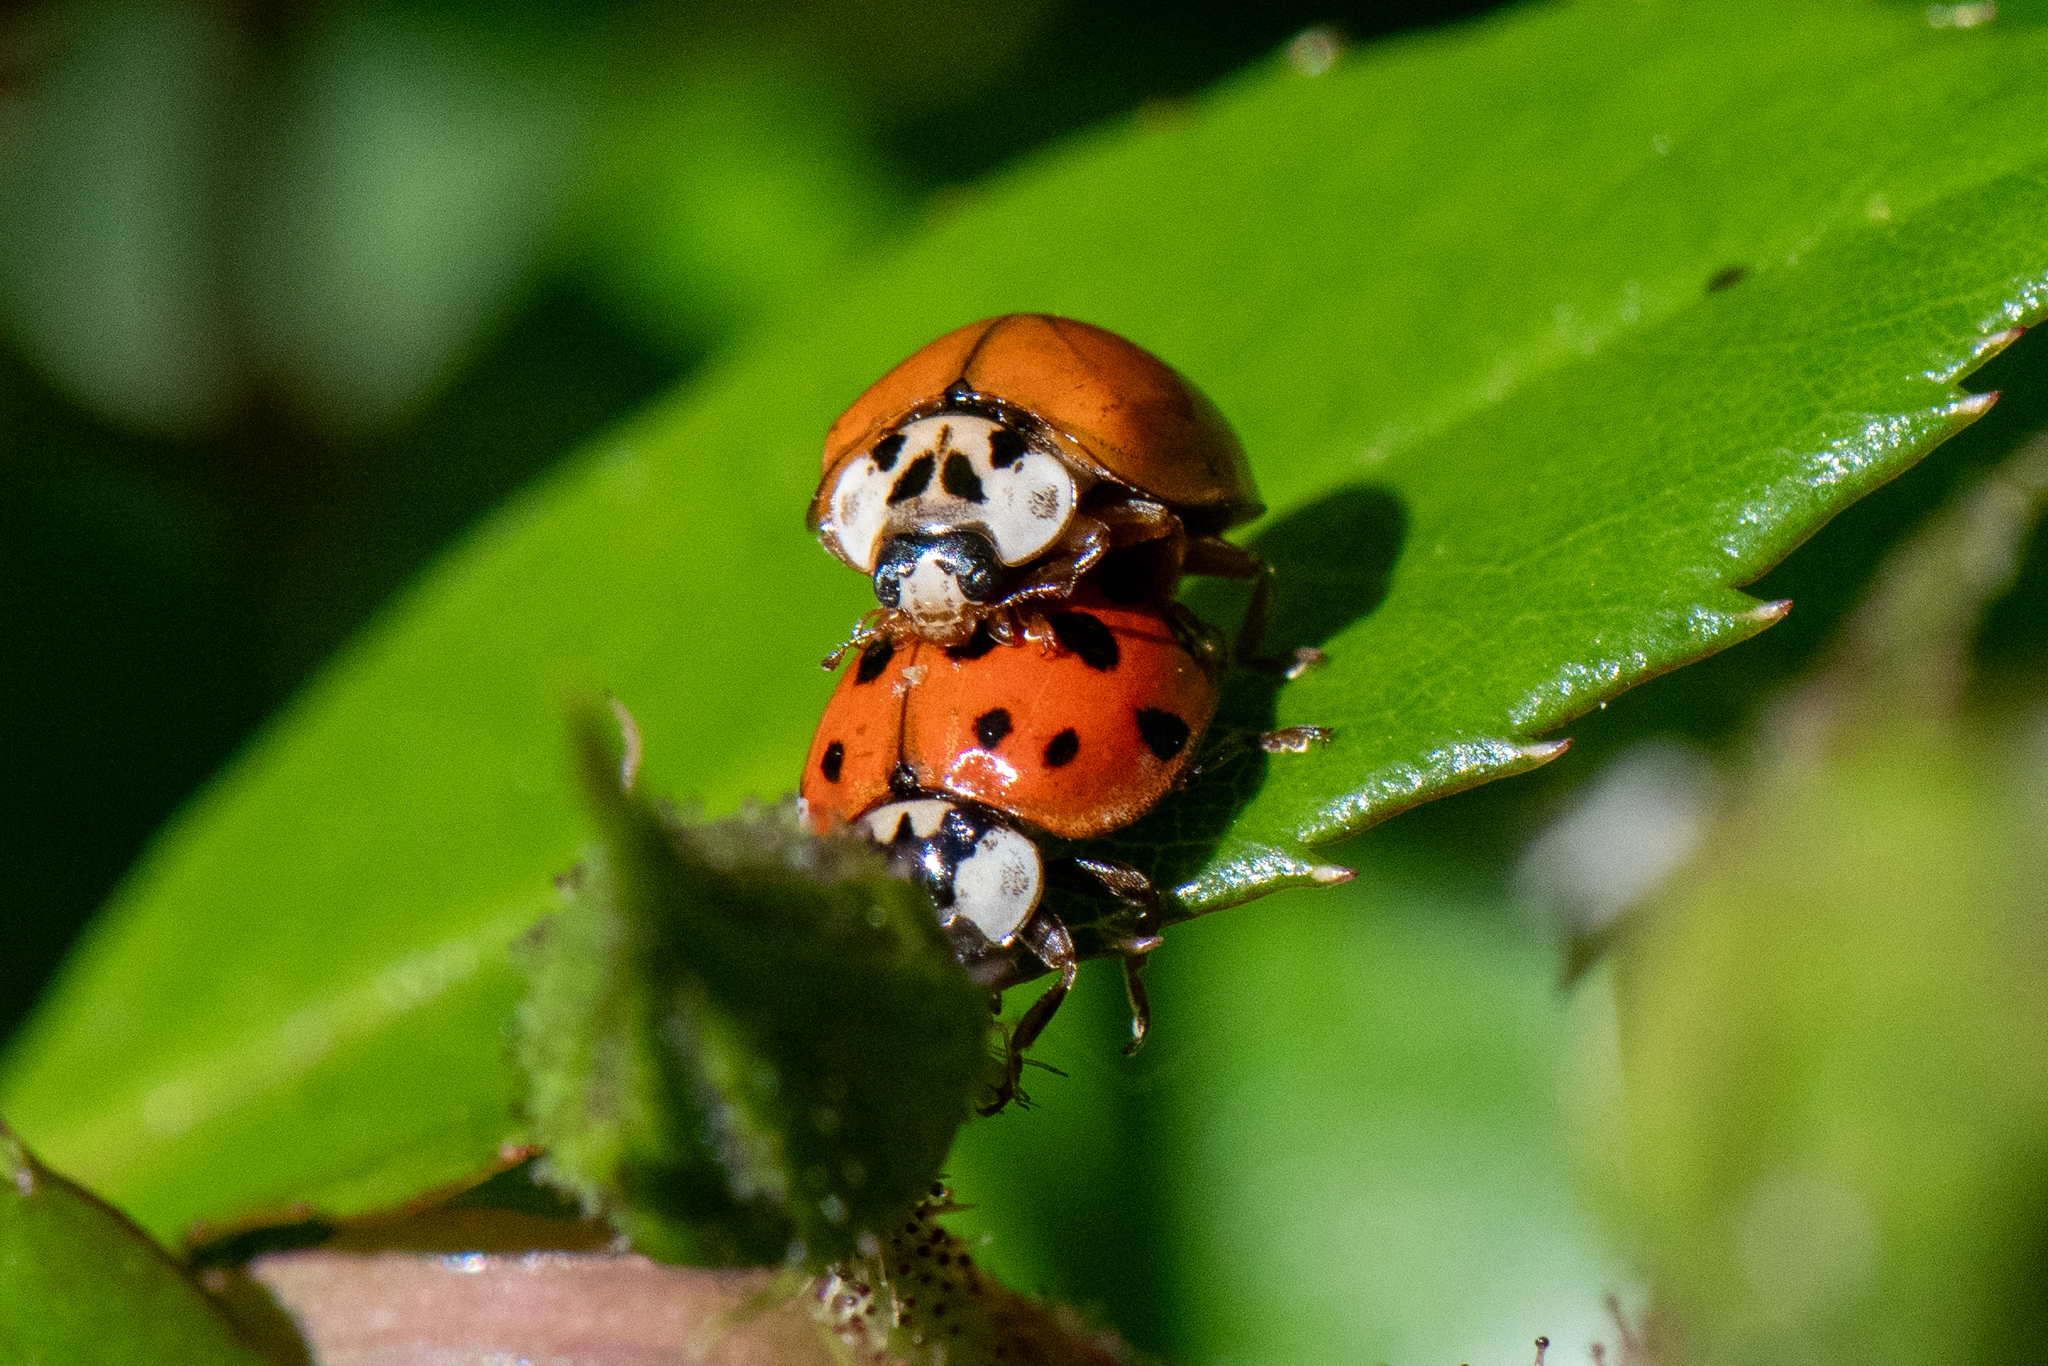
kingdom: Animalia
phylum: Arthropoda
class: Insecta
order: Coleoptera
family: Coccinellidae
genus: Harmonia
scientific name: Harmonia axyridis
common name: Harlequin ladybird
